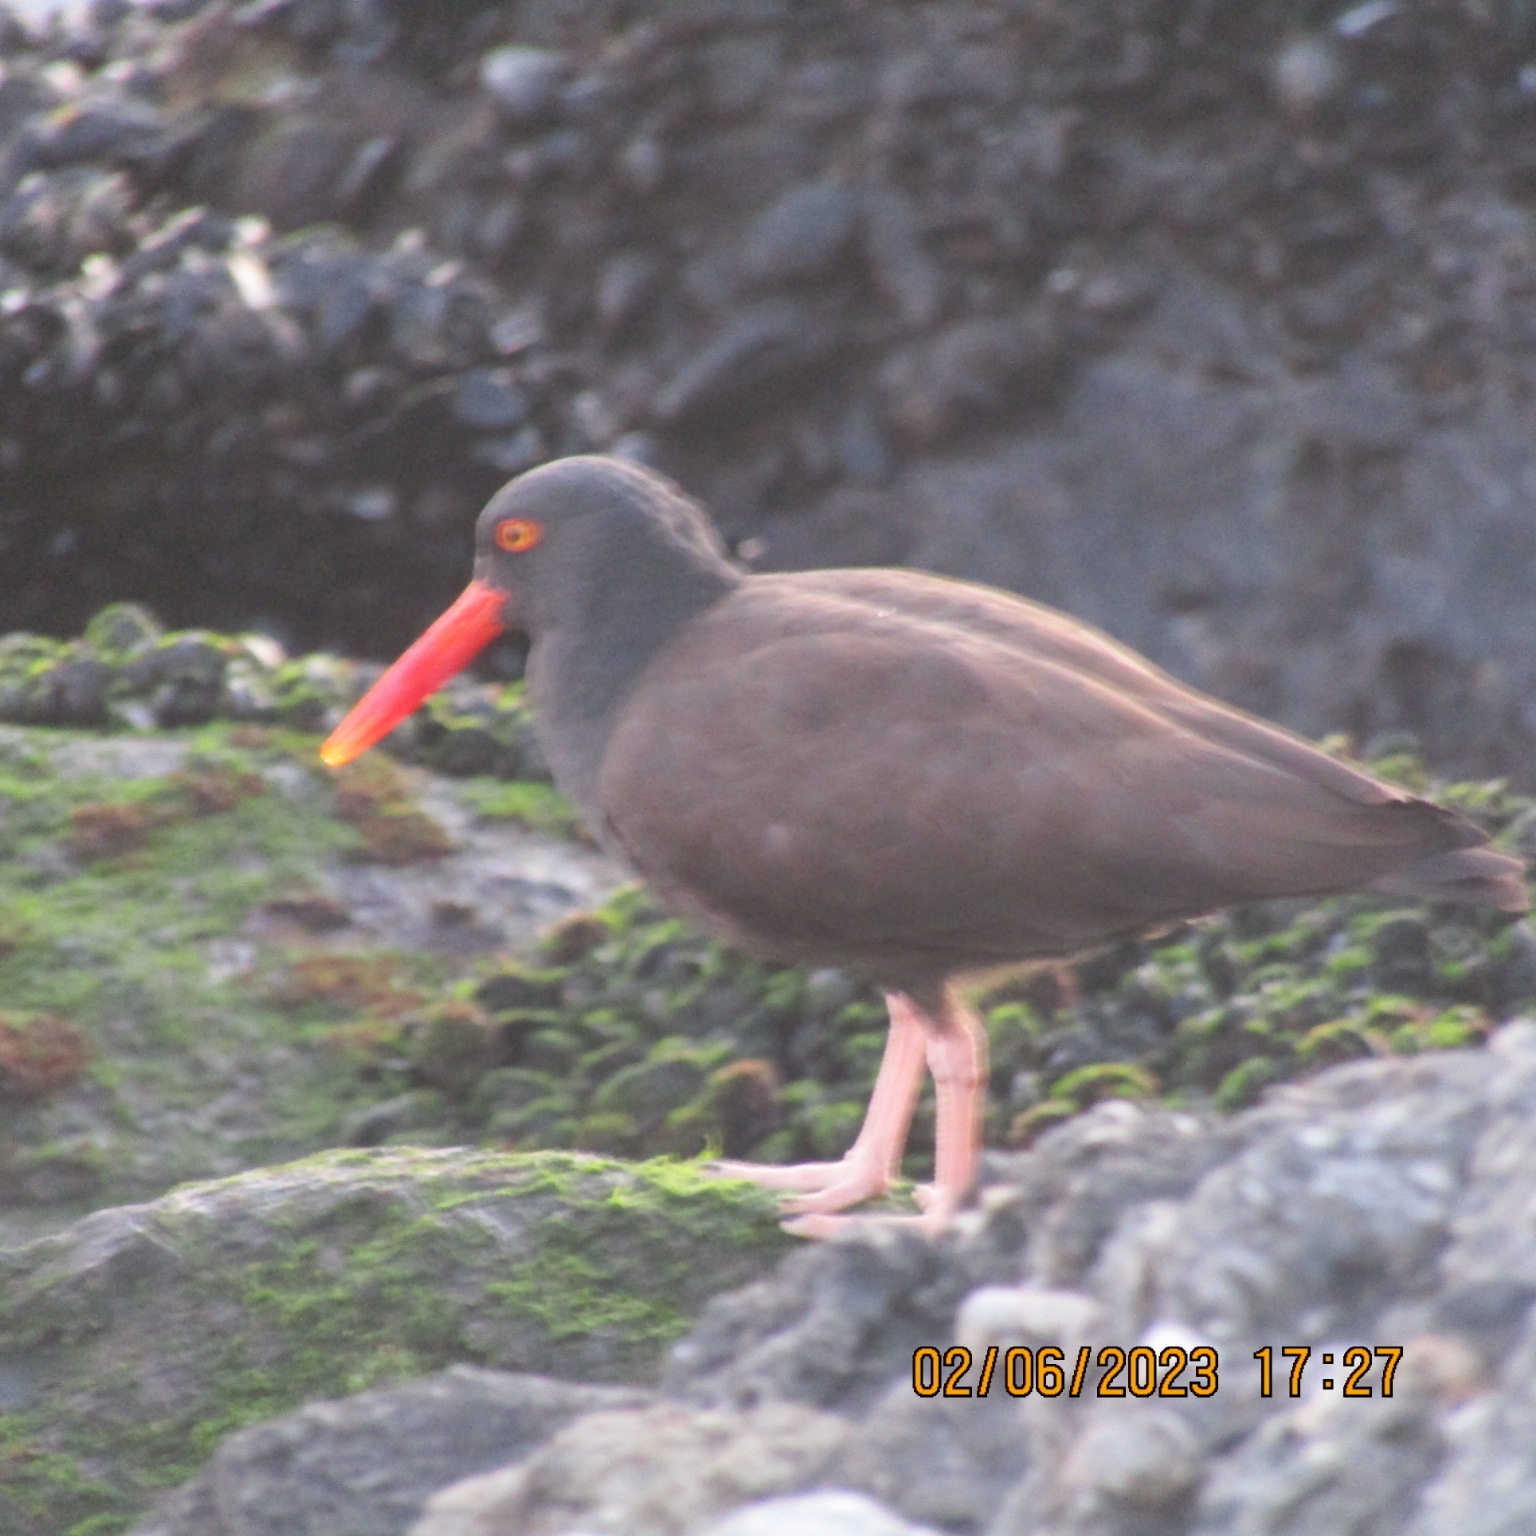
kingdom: Animalia
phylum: Chordata
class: Aves
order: Charadriiformes
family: Haematopodidae
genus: Haematopus
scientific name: Haematopus bachmani
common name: Black oystercatcher
